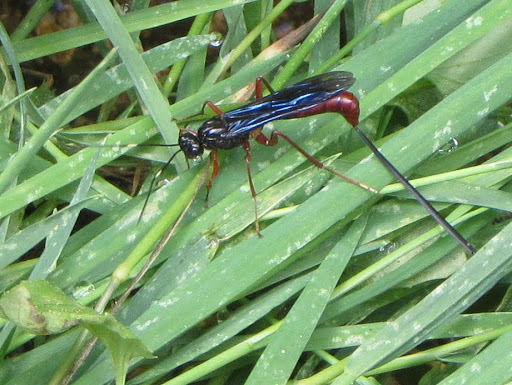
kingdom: Animalia
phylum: Arthropoda
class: Insecta
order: Hymenoptera
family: Ichneumonidae
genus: Echthrus
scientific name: Echthrus abdominalis
